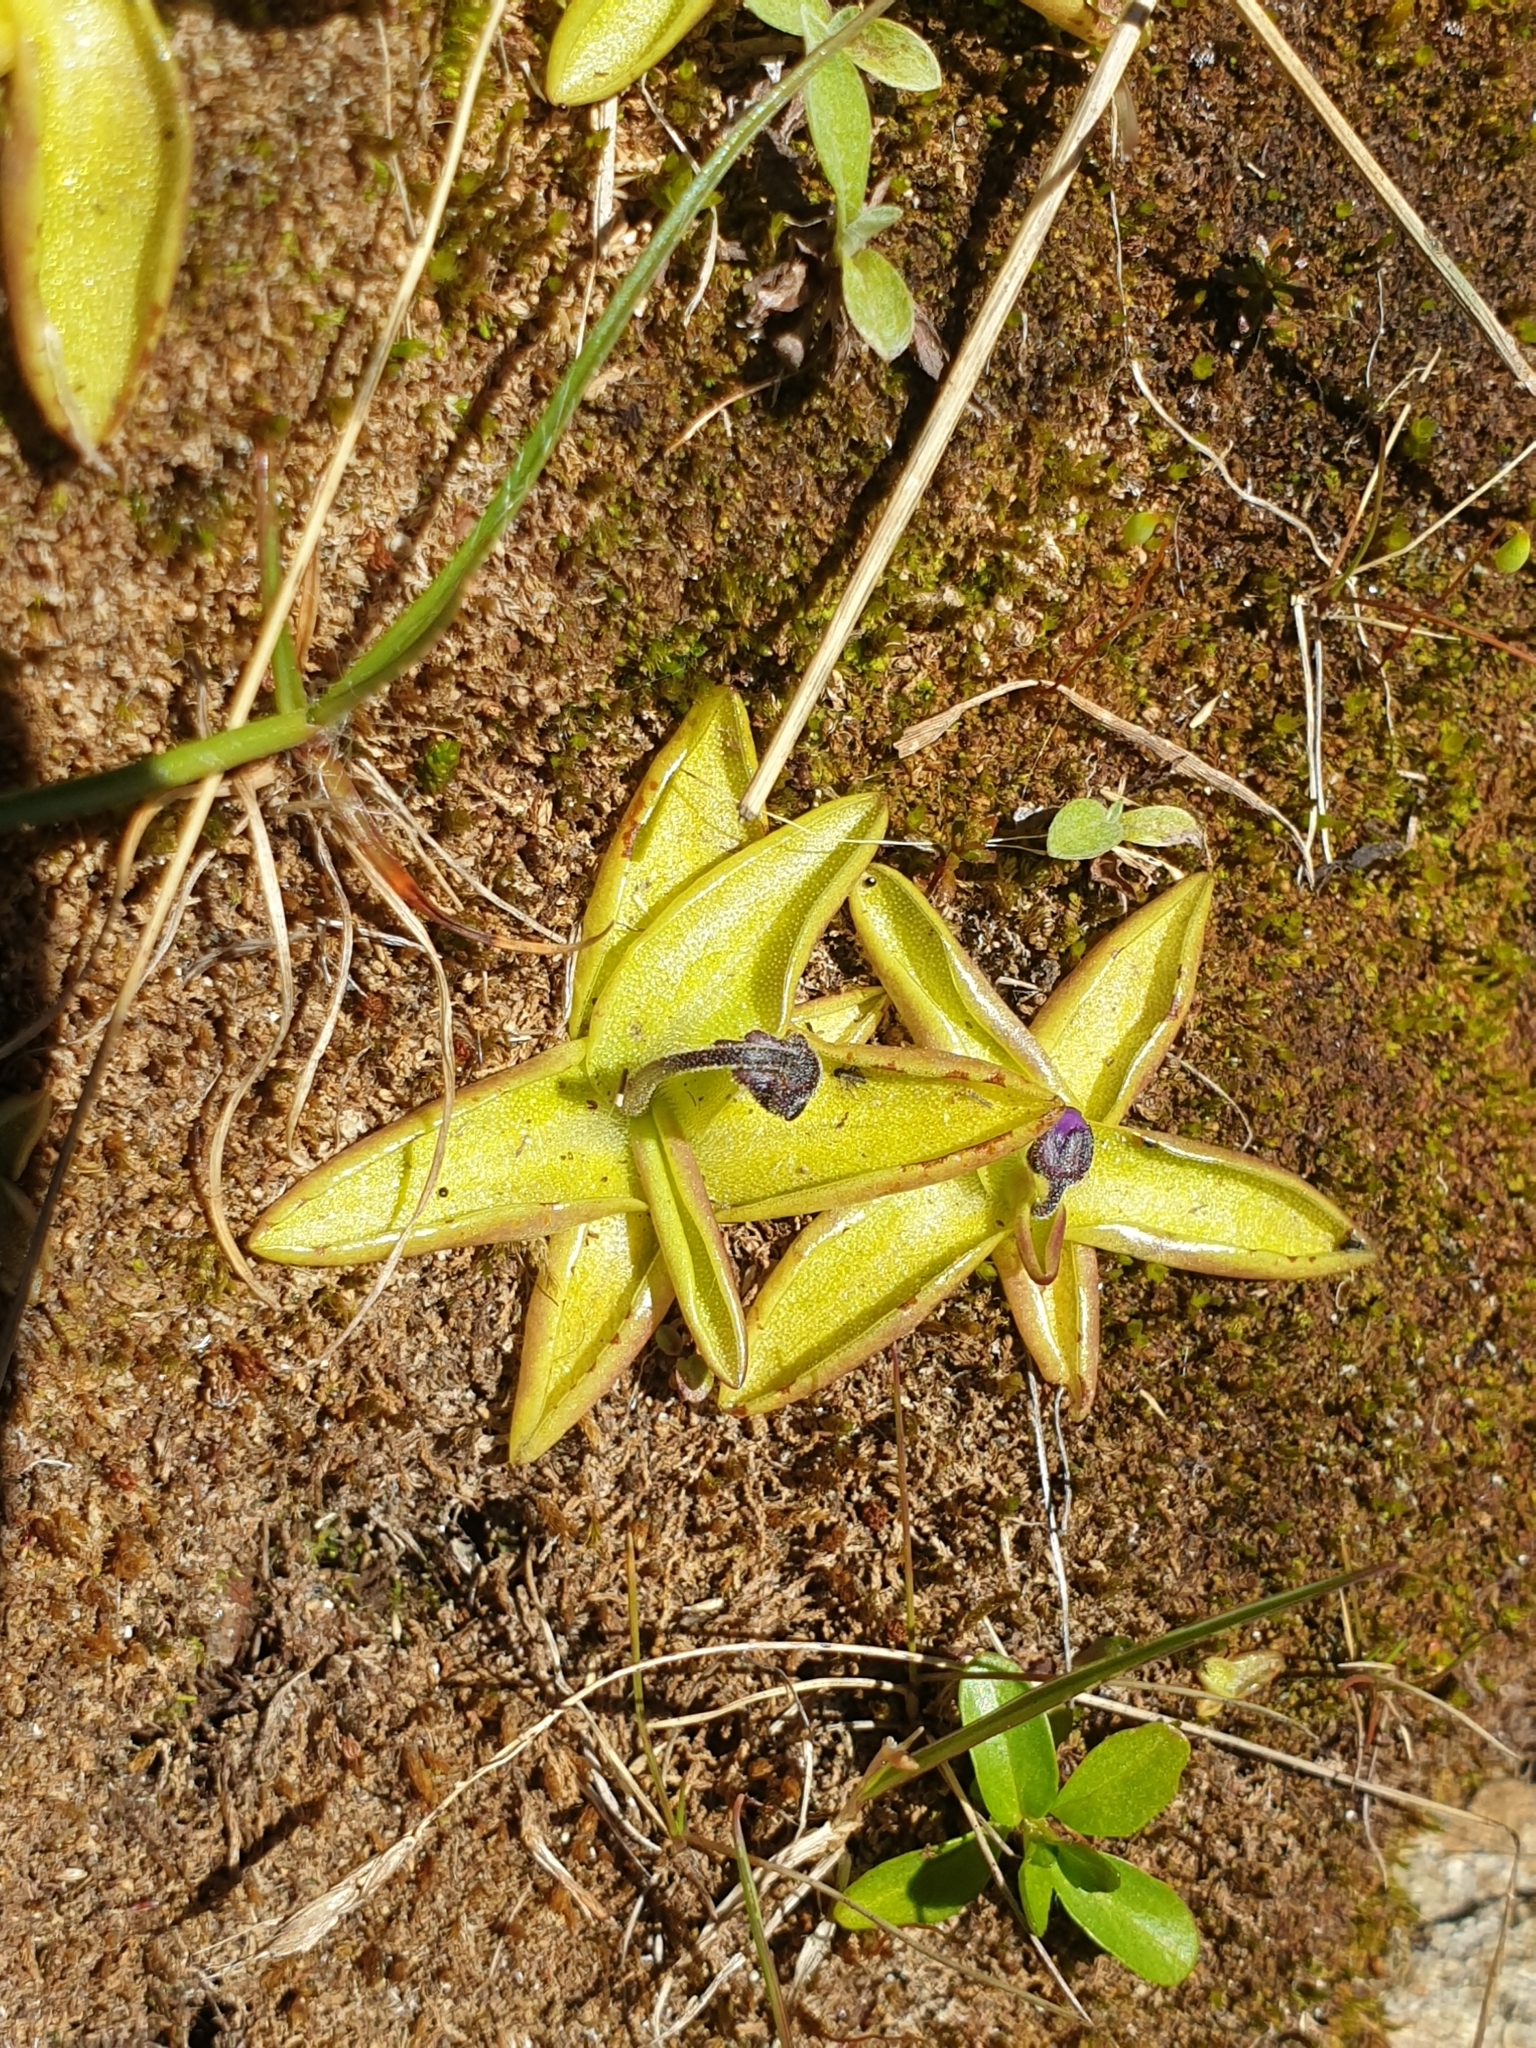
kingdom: Plantae
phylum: Tracheophyta
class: Magnoliopsida
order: Lamiales
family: Lentibulariaceae
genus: Pinguicula
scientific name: Pinguicula vulgaris
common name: Common butterwort
